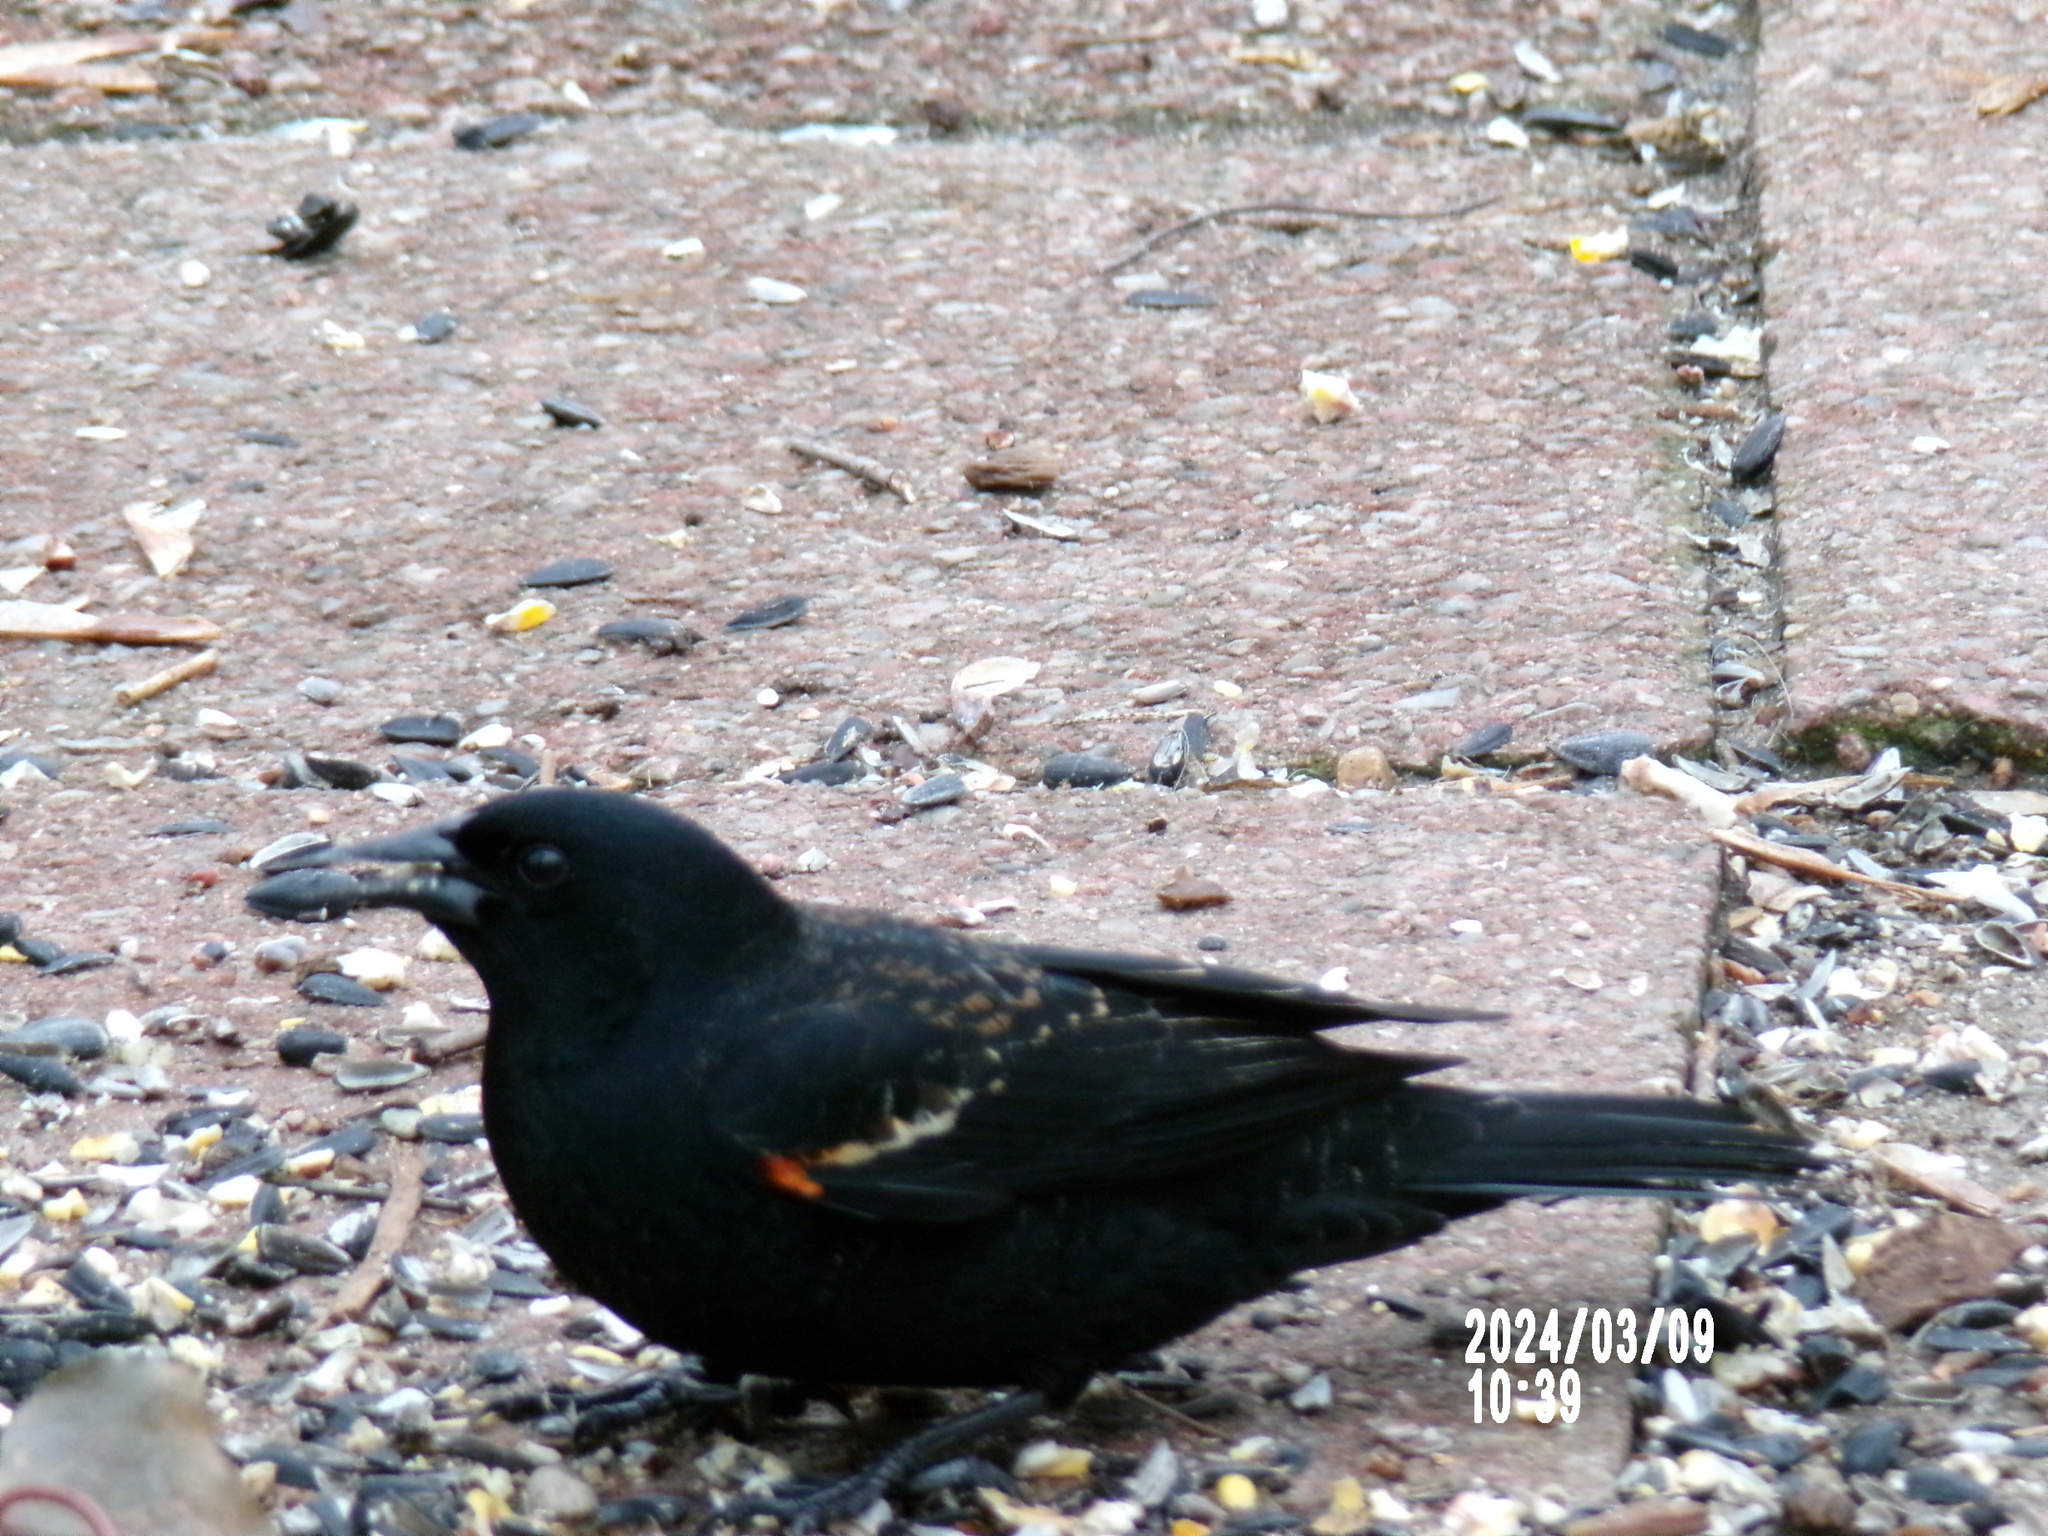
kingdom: Animalia
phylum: Chordata
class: Aves
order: Passeriformes
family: Icteridae
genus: Agelaius
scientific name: Agelaius phoeniceus
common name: Red-winged blackbird
